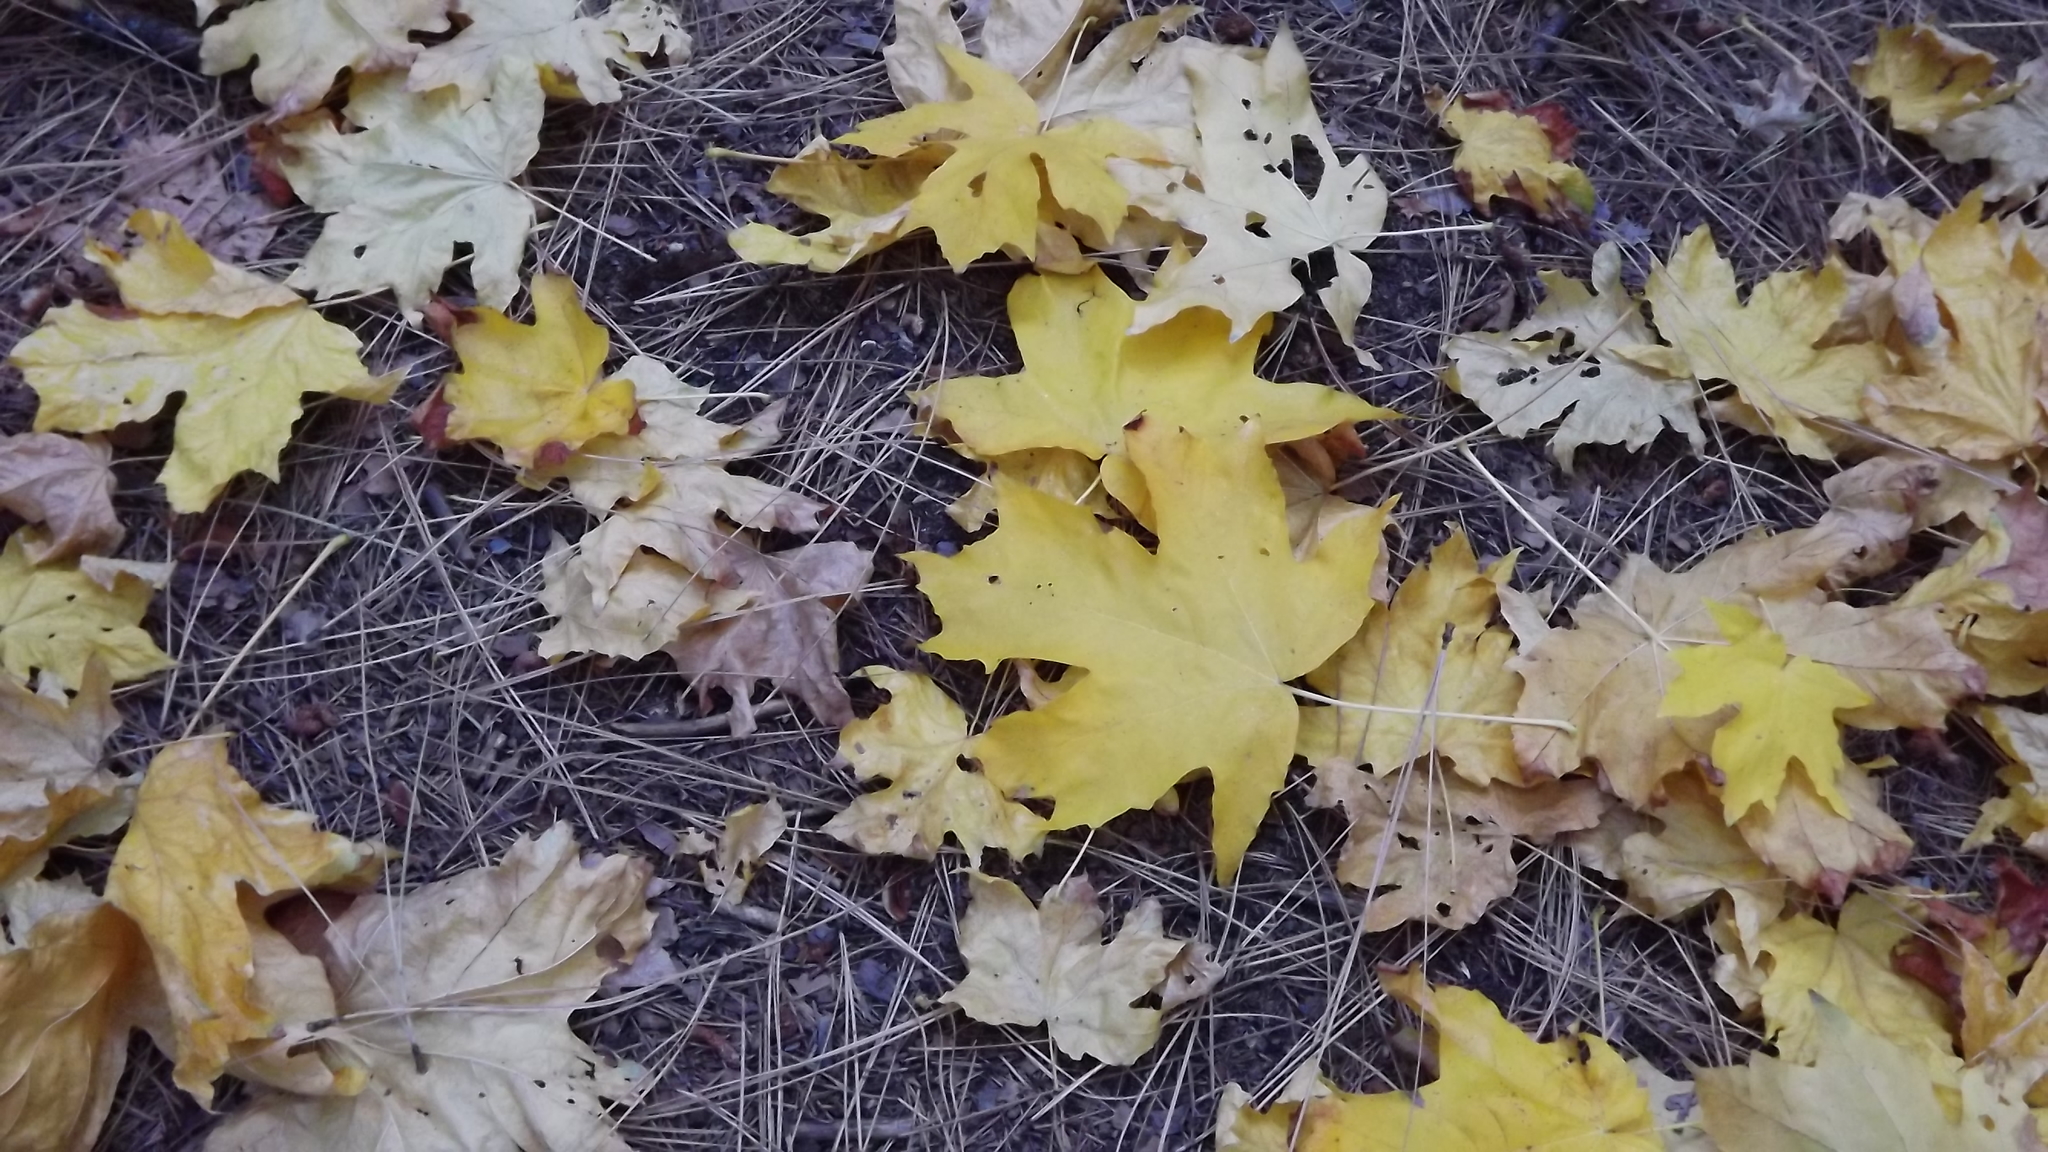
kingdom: Plantae
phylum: Tracheophyta
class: Magnoliopsida
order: Sapindales
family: Sapindaceae
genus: Acer
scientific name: Acer macrophyllum
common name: Oregon maple
